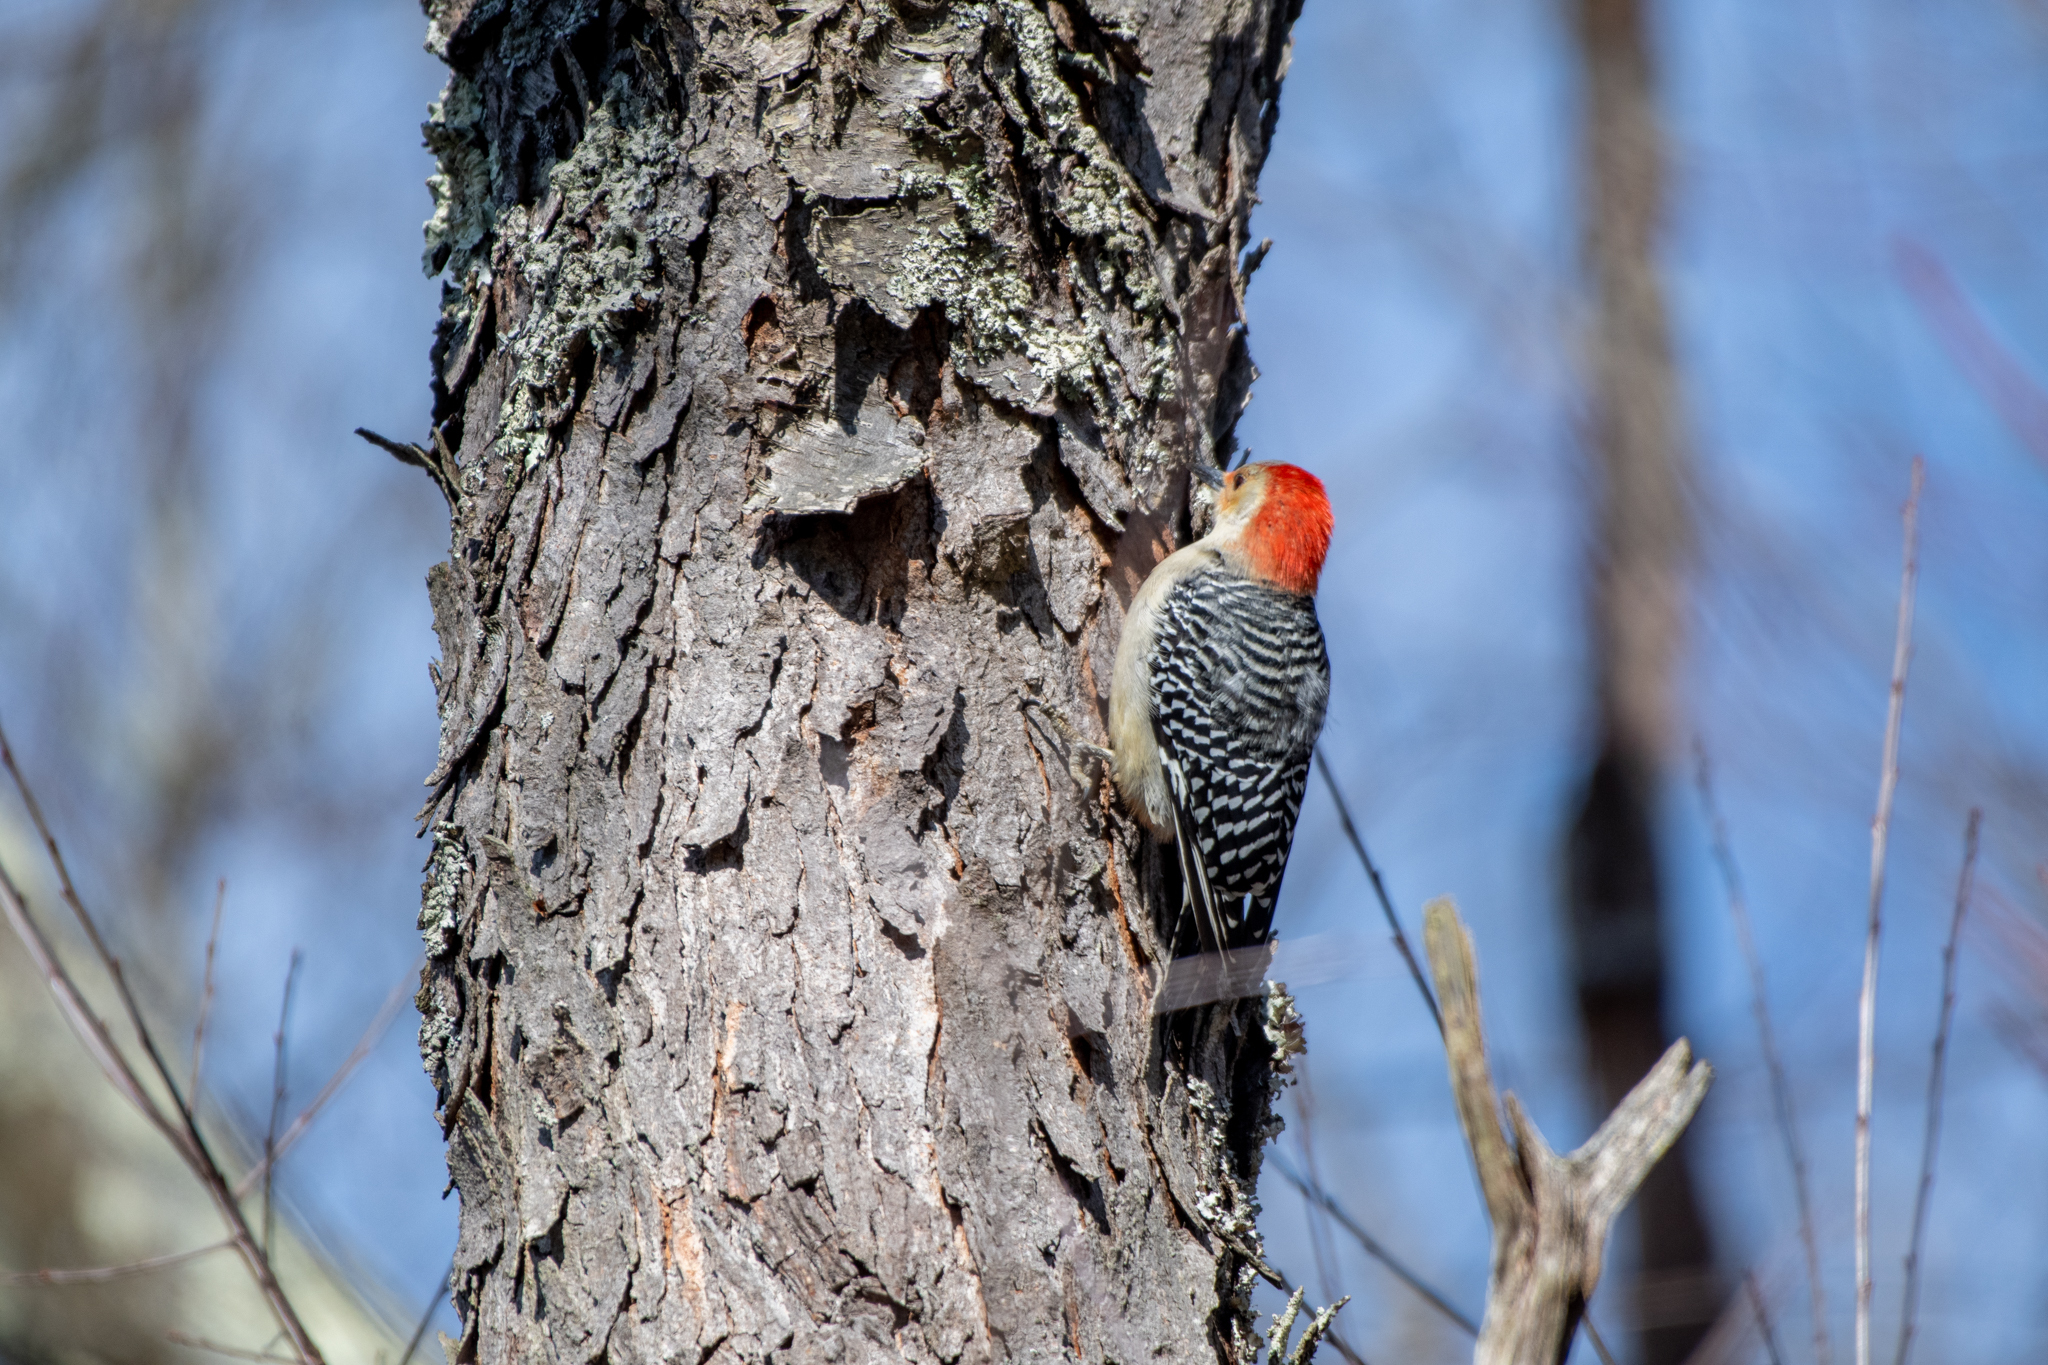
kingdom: Animalia
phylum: Chordata
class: Aves
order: Piciformes
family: Picidae
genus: Melanerpes
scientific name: Melanerpes carolinus
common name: Red-bellied woodpecker
